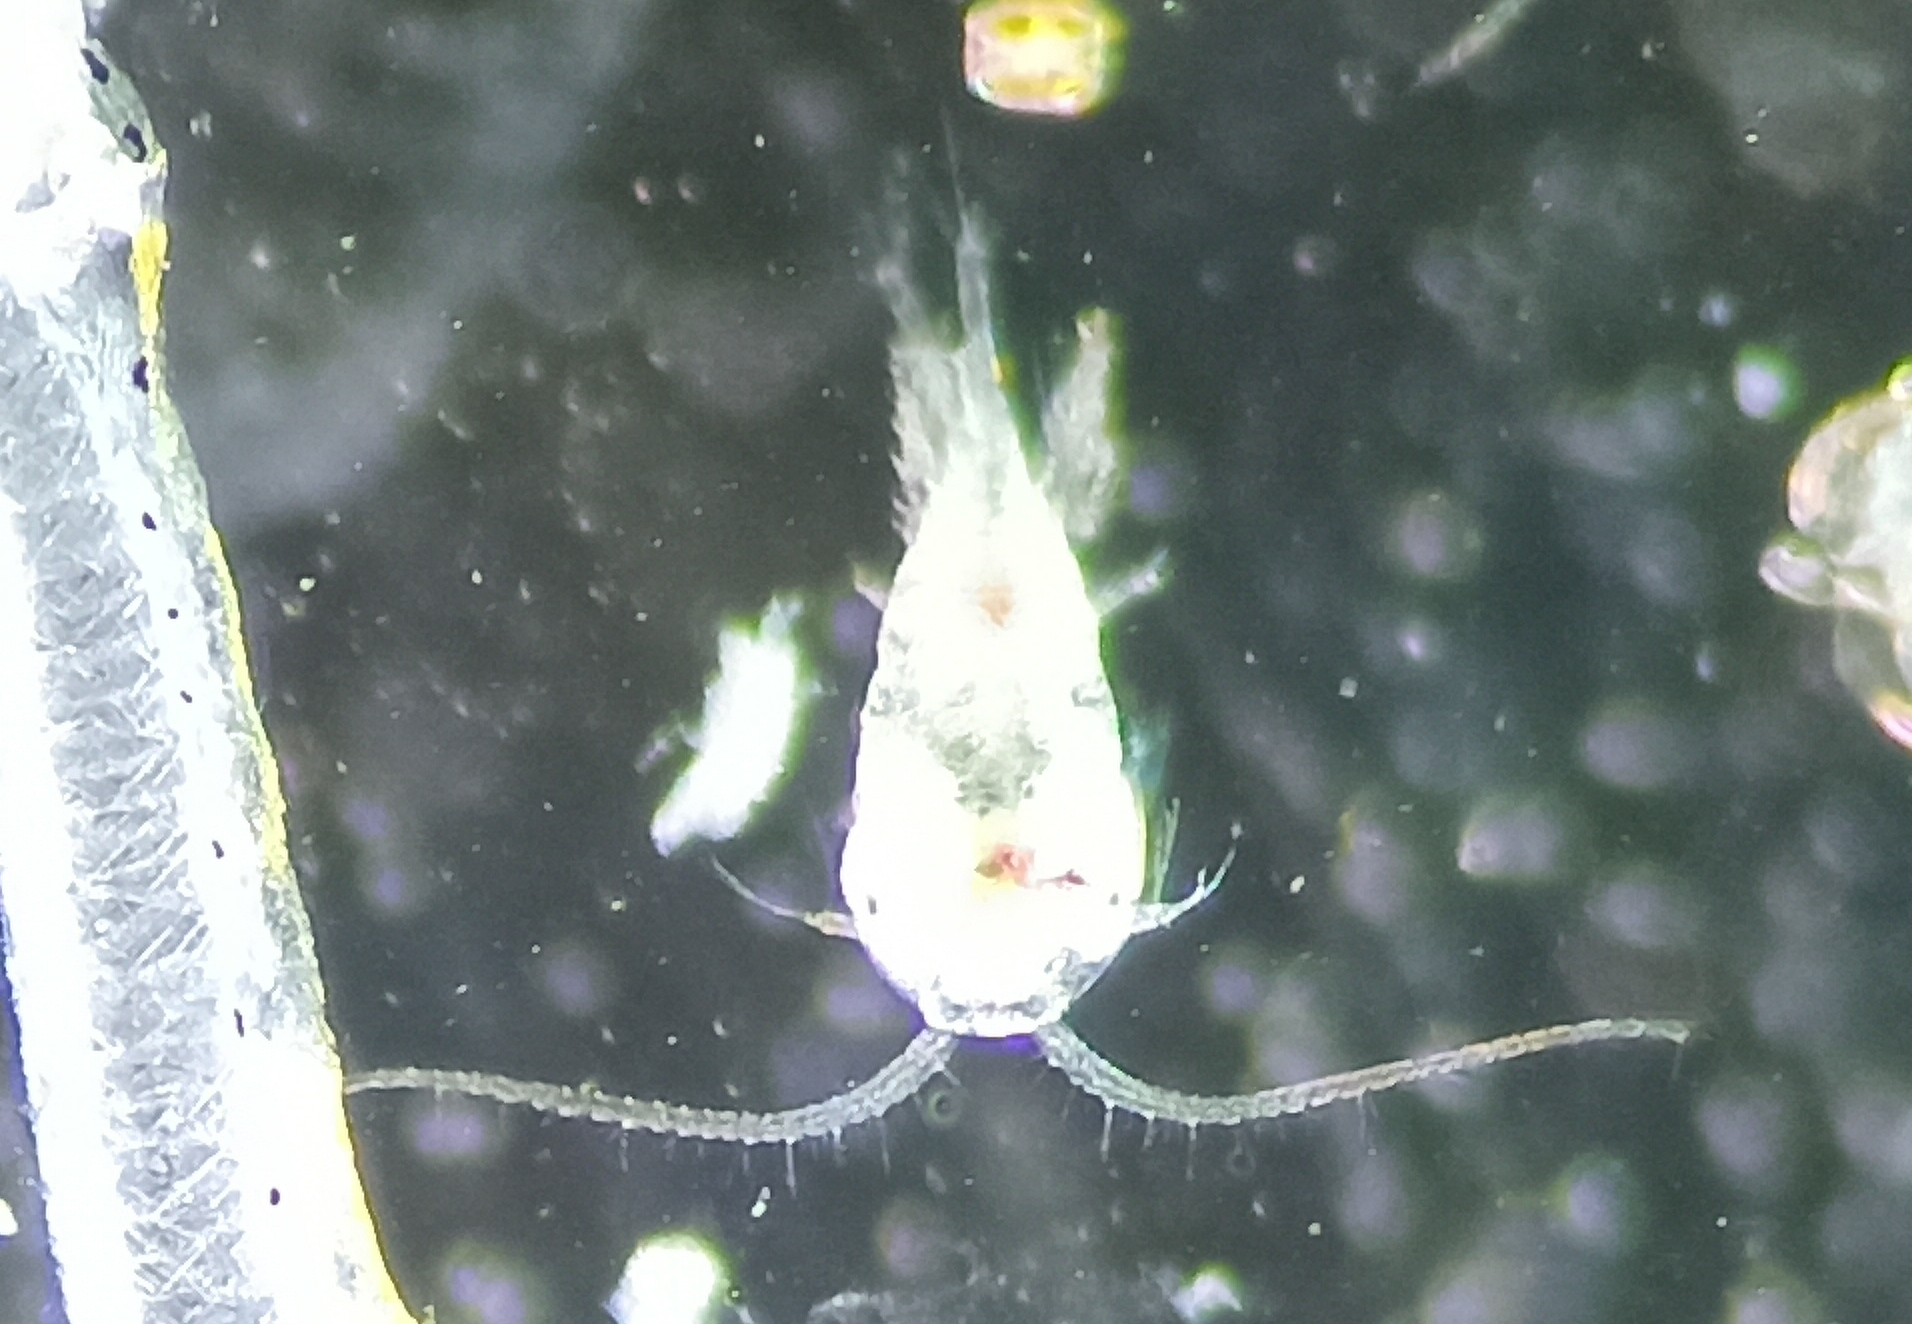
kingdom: Animalia
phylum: Arthropoda
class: Copepoda
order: Calanoida
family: Temoridae
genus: Temora
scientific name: Temora turbinata
